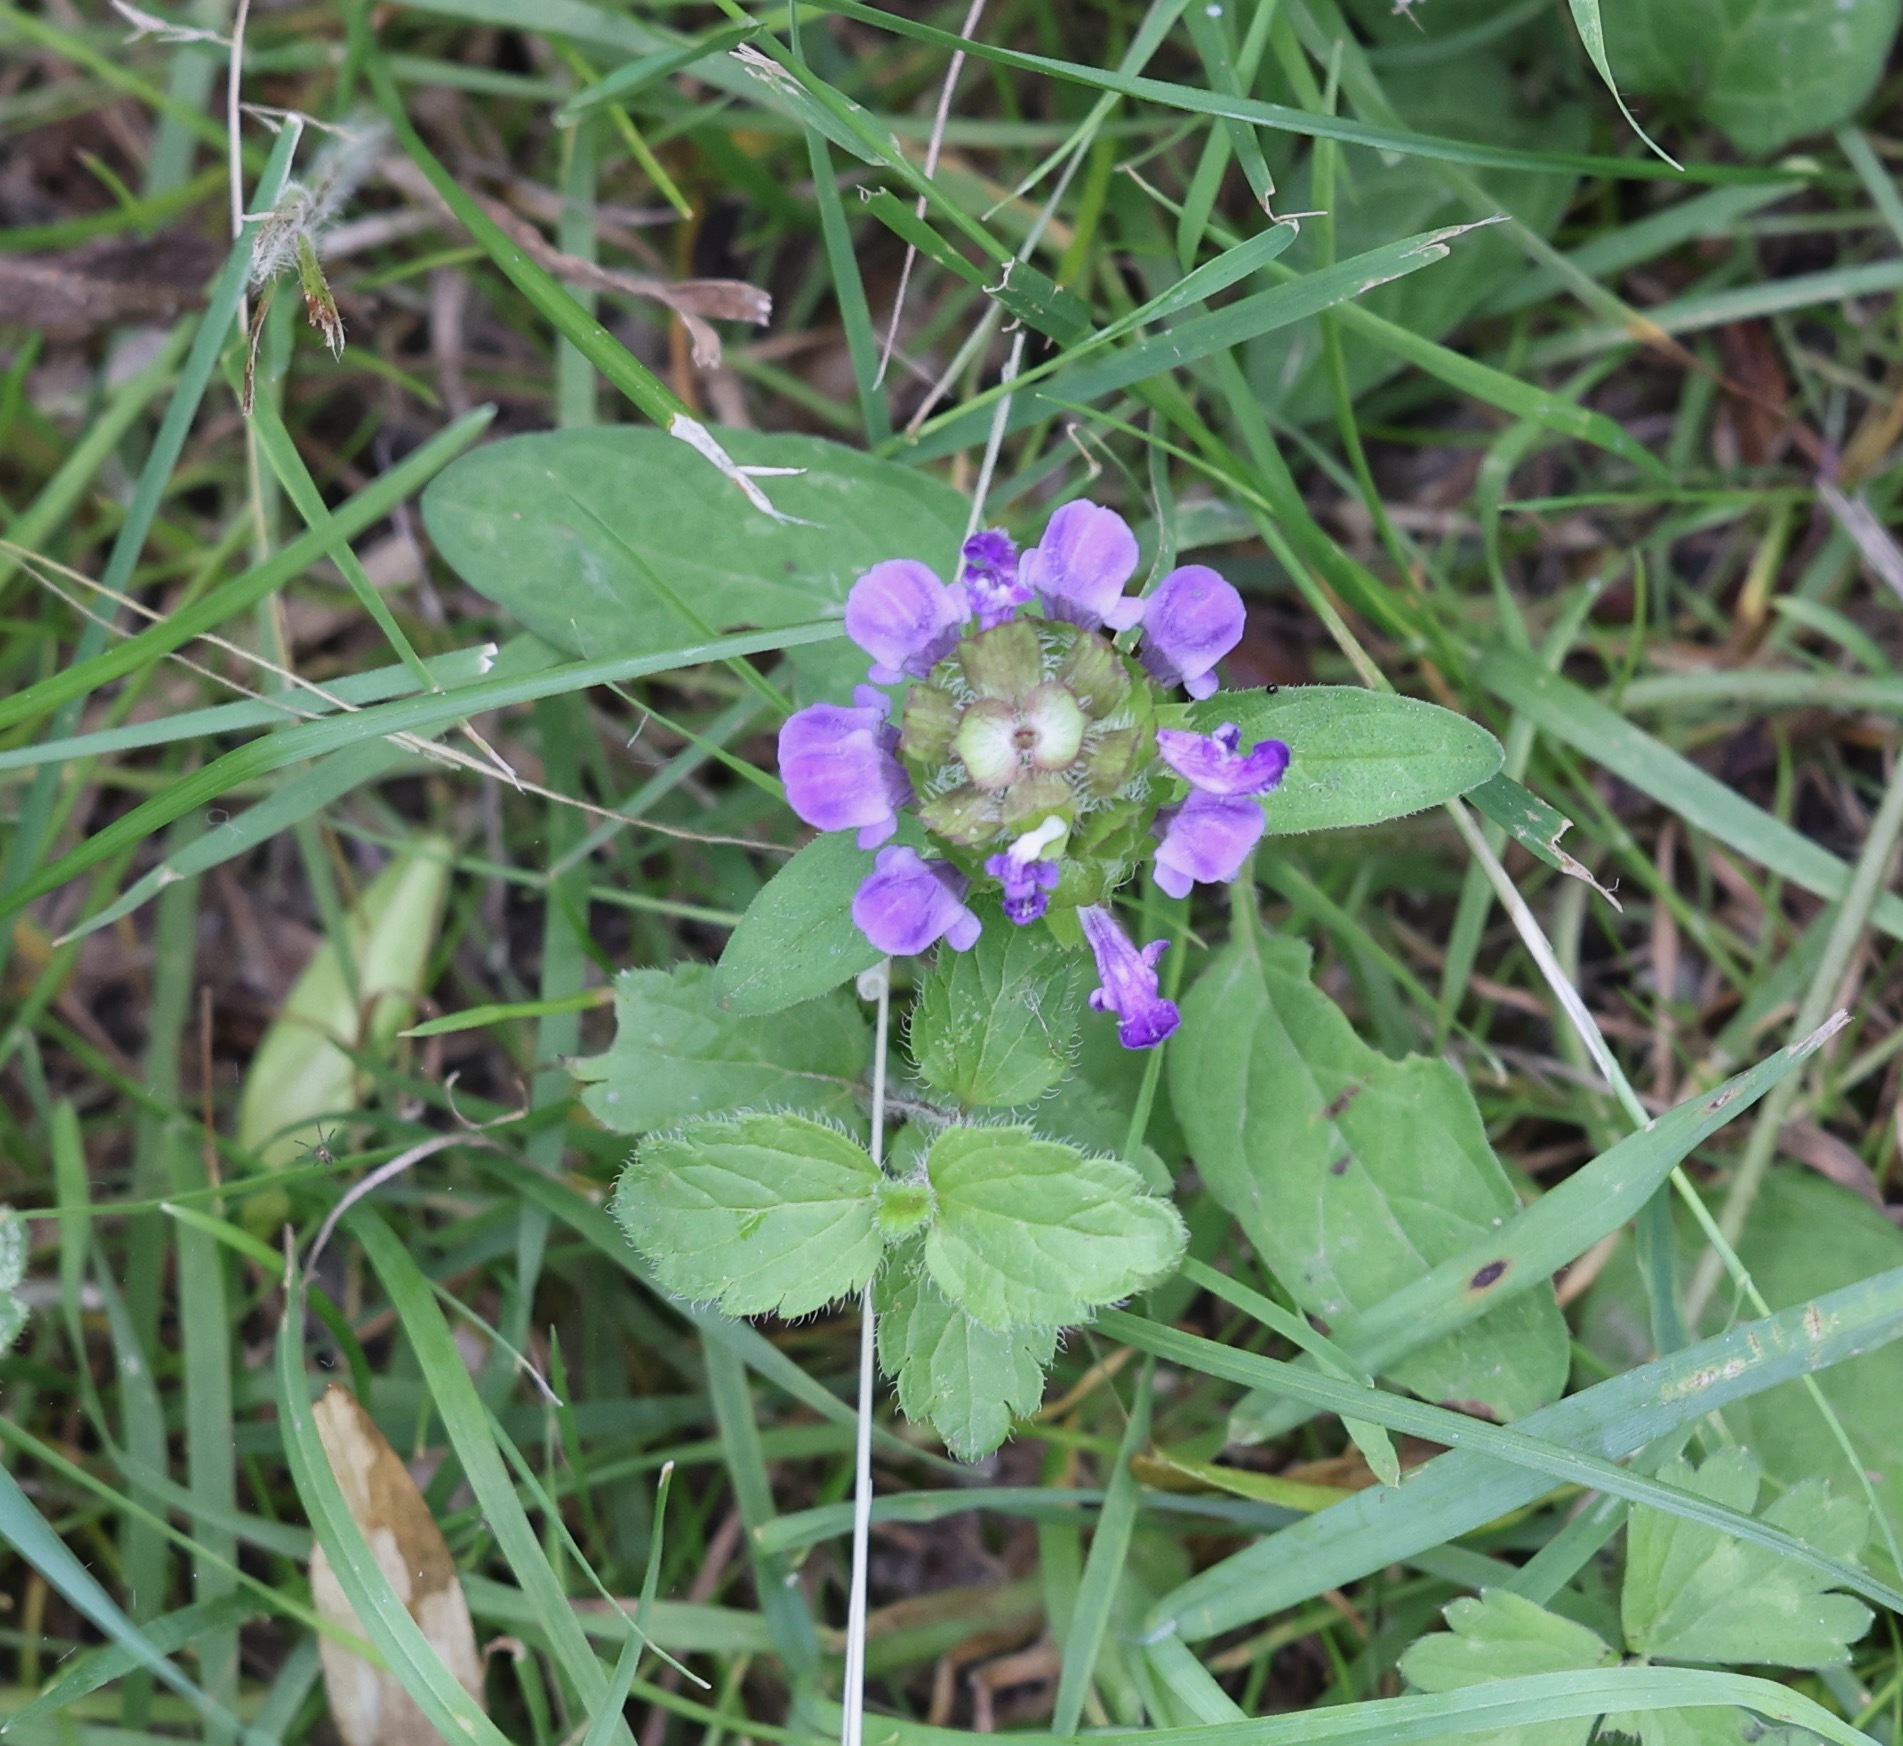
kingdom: Plantae
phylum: Tracheophyta
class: Magnoliopsida
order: Lamiales
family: Lamiaceae
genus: Prunella
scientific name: Prunella vulgaris
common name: Heal-all
